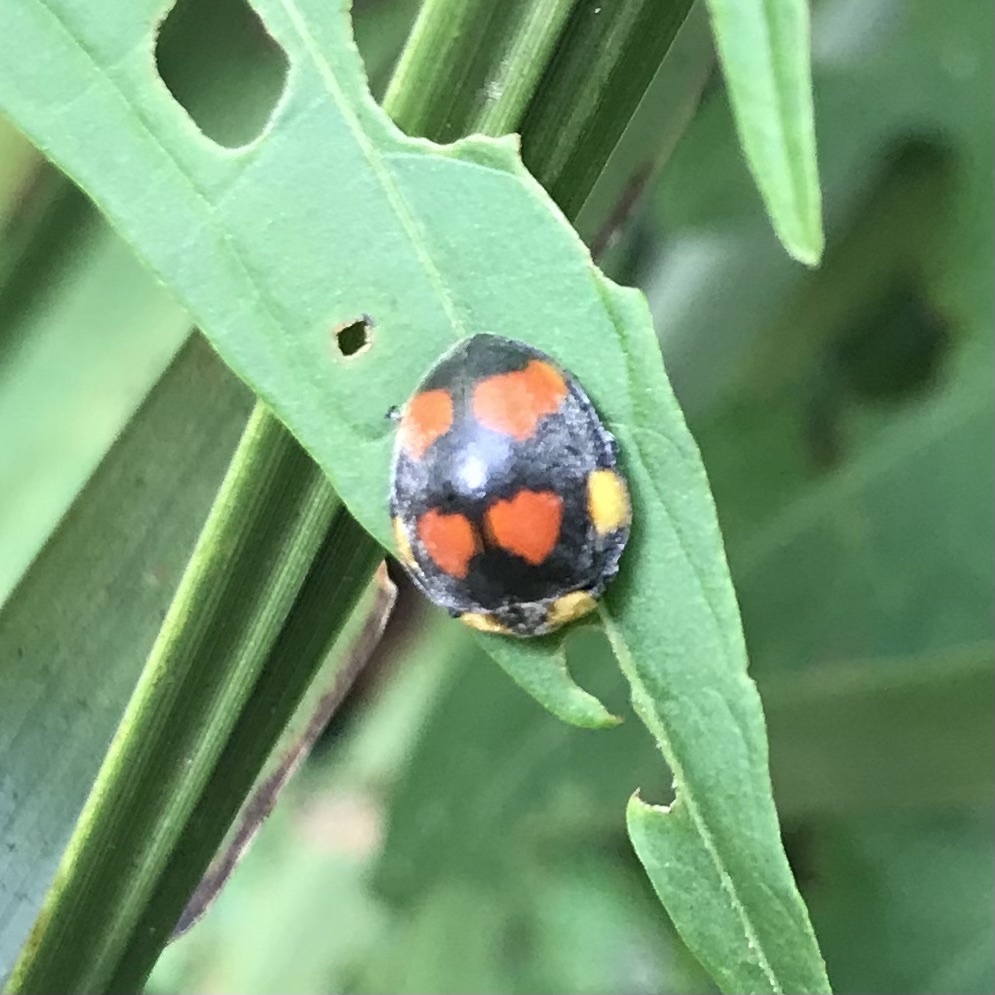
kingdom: Animalia
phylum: Arthropoda
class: Insecta
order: Coleoptera
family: Coccinellidae
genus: Papuaepilachna
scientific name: Papuaepilachna
